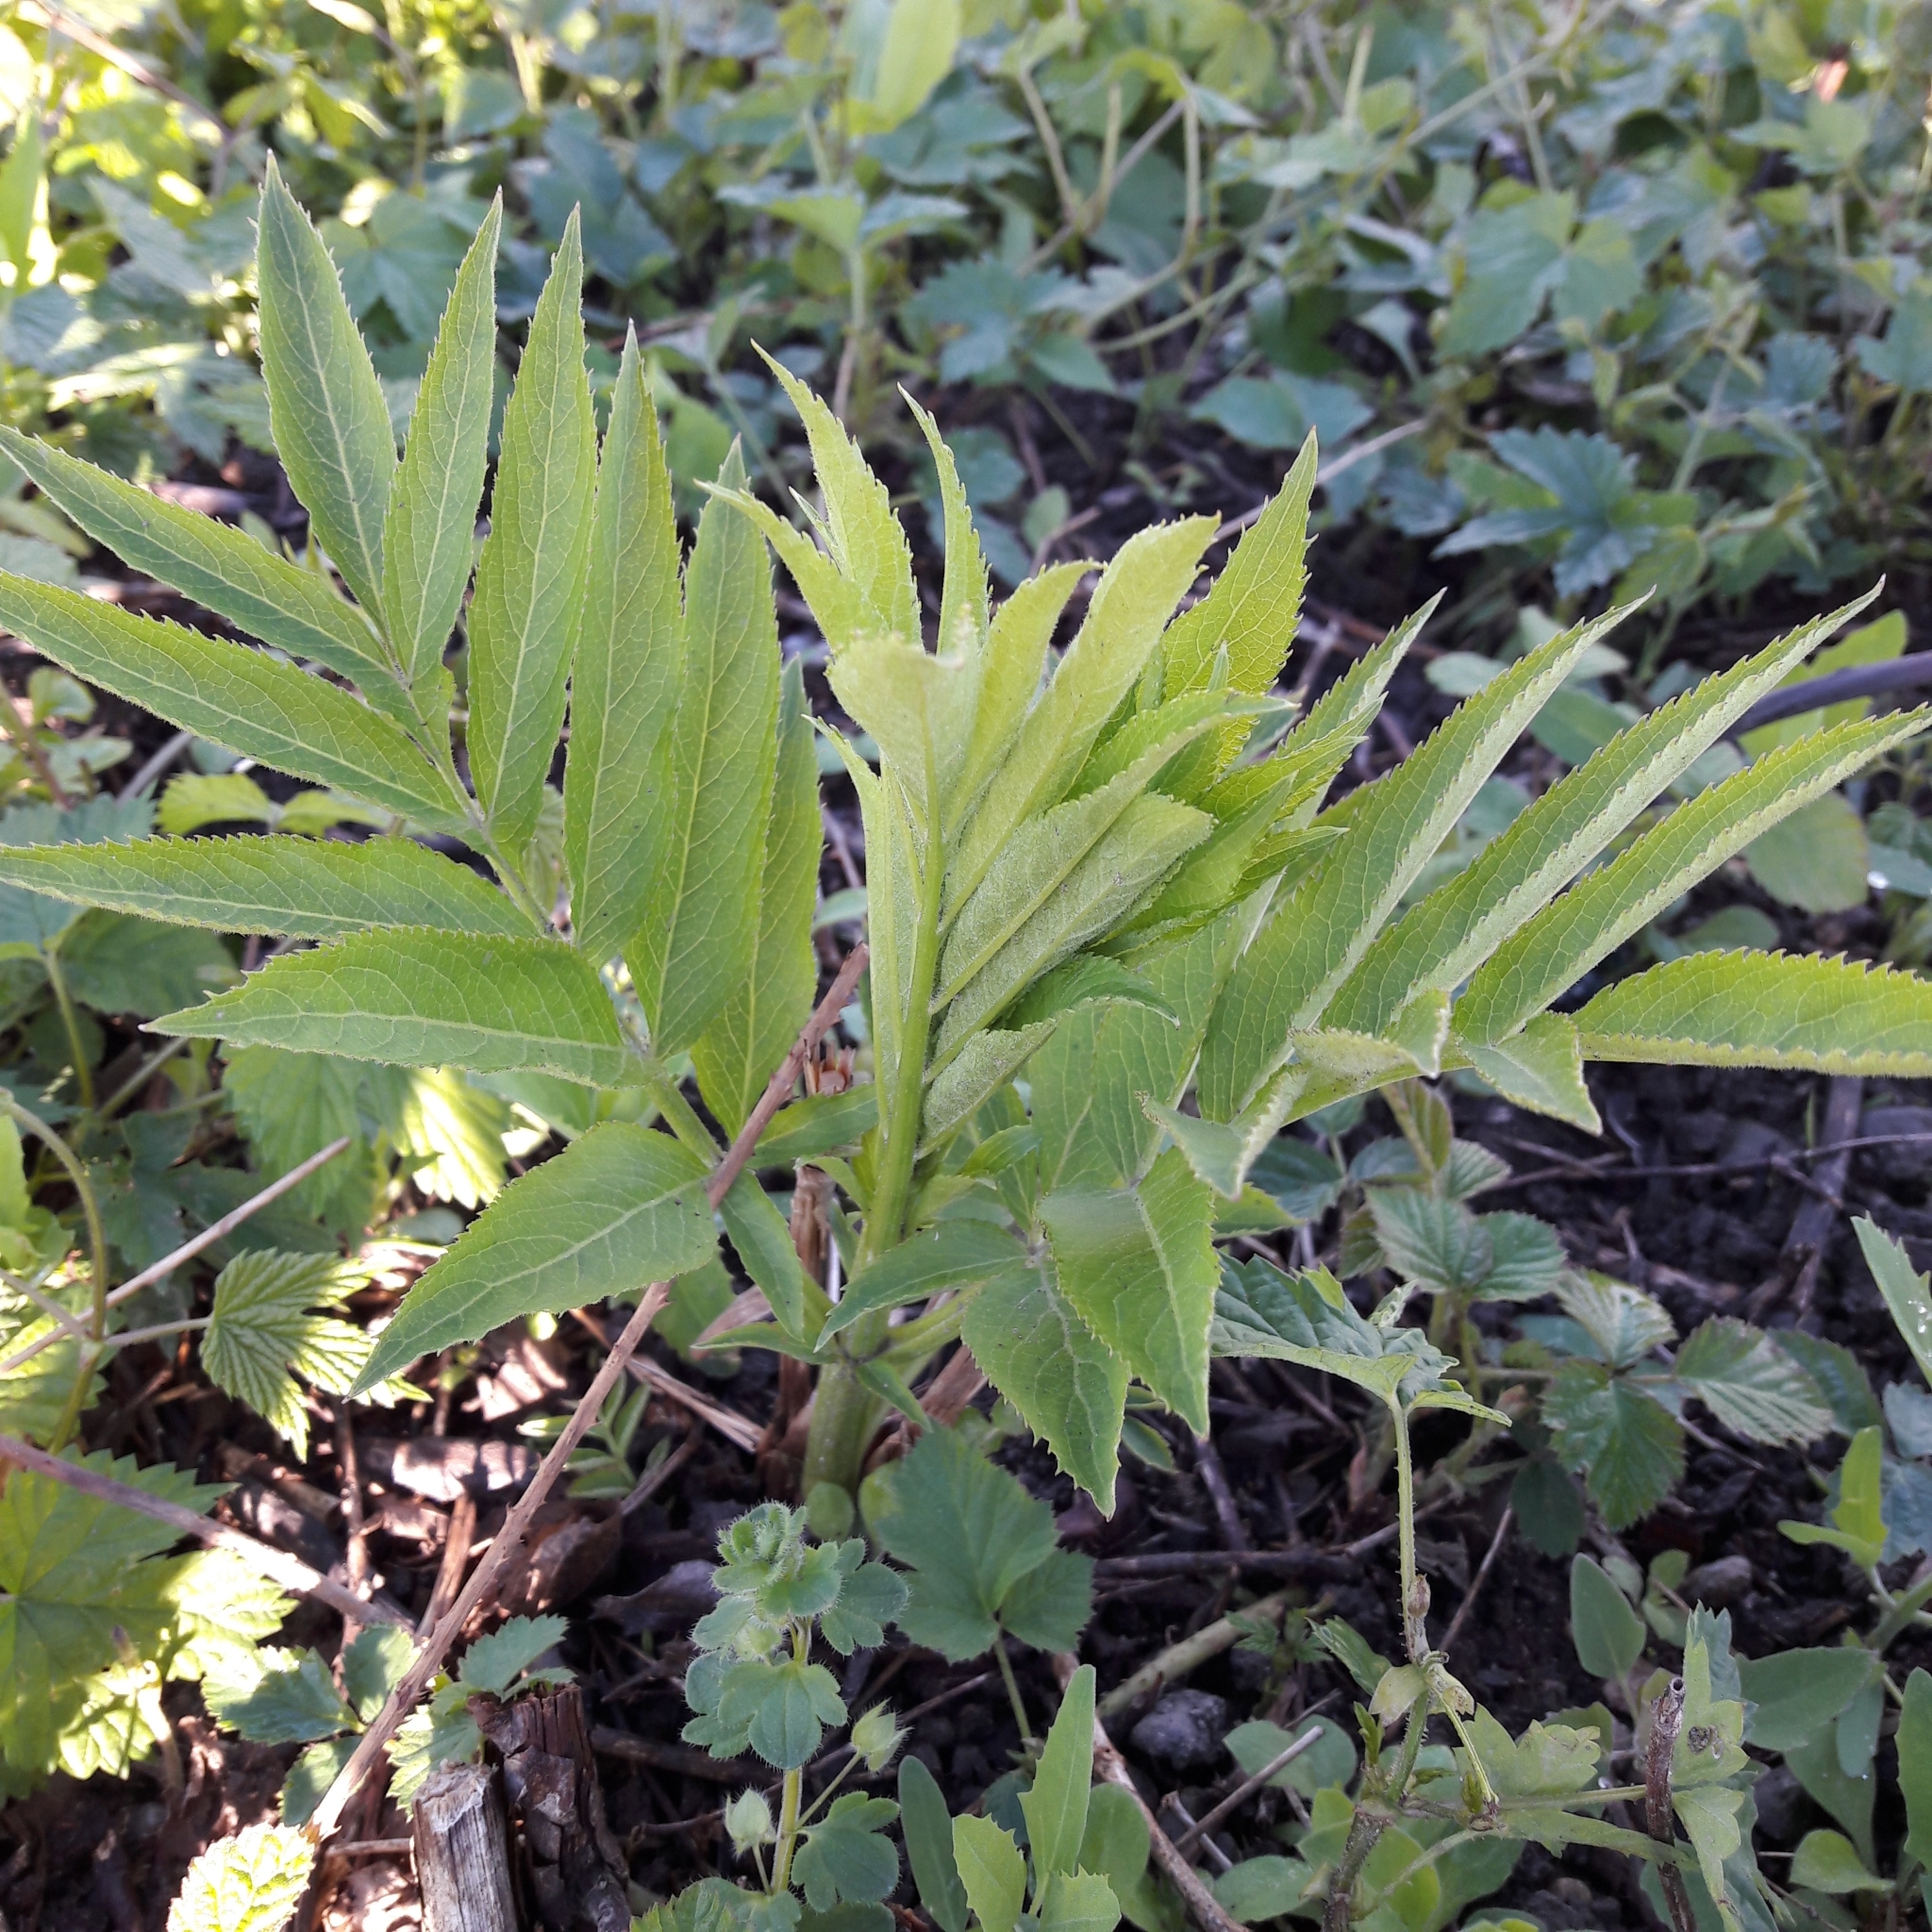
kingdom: Plantae
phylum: Tracheophyta
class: Magnoliopsida
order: Dipsacales
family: Viburnaceae
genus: Sambucus
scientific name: Sambucus ebulus
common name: Dwarf elder
